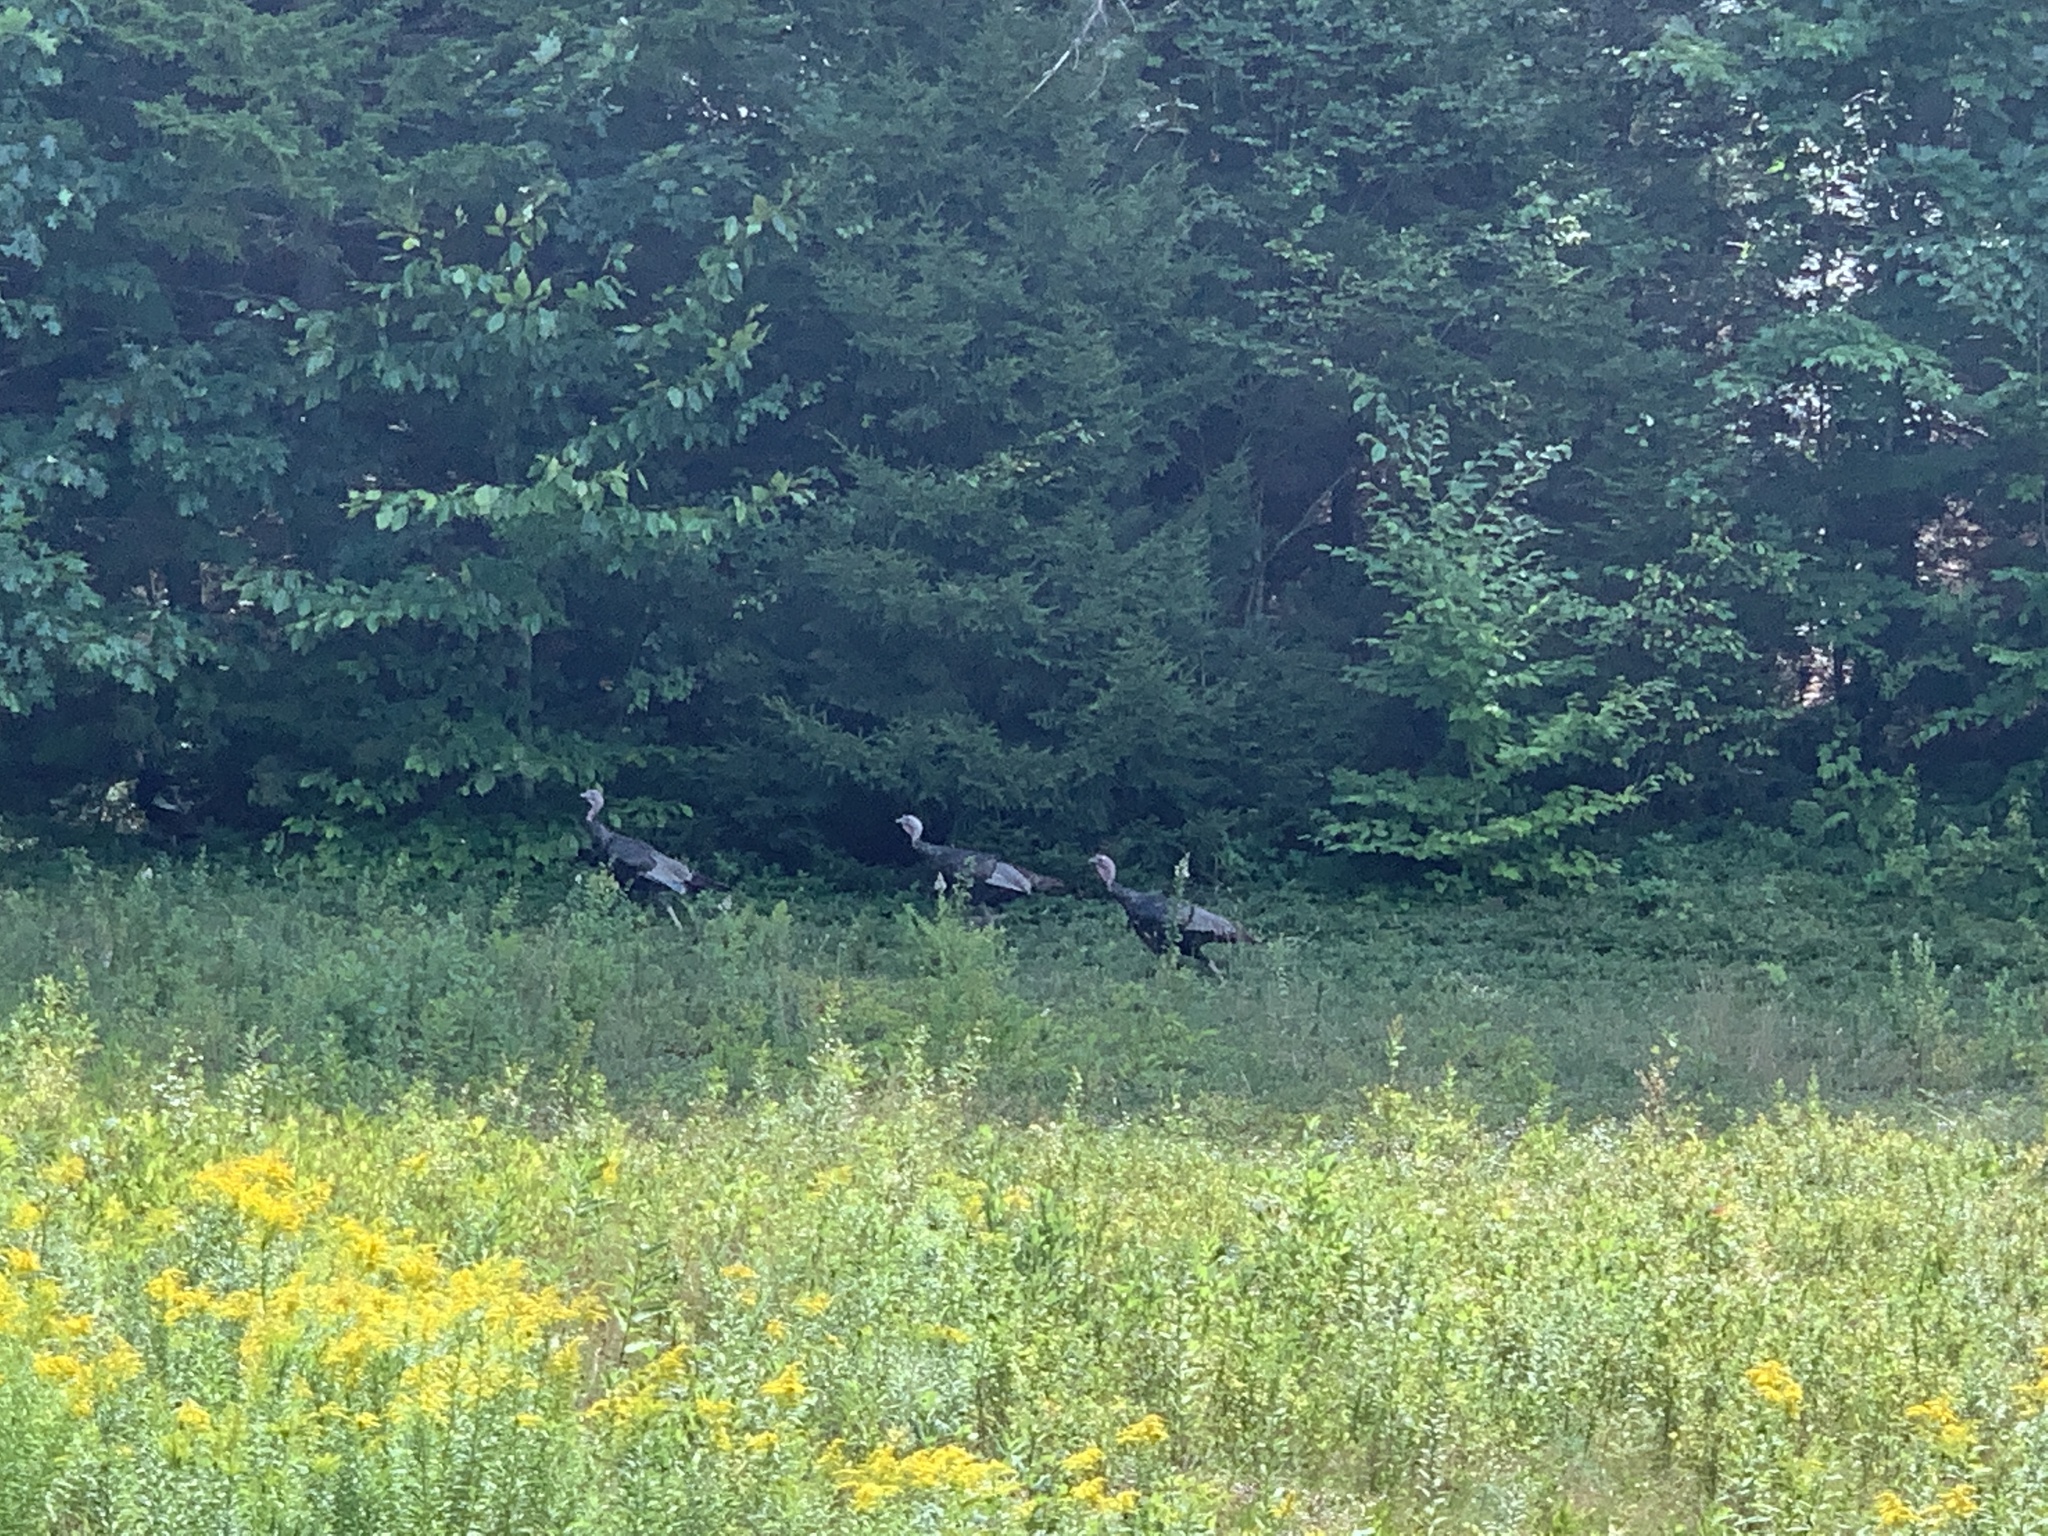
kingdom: Animalia
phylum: Chordata
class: Aves
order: Galliformes
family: Phasianidae
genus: Meleagris
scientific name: Meleagris gallopavo
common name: Wild turkey
